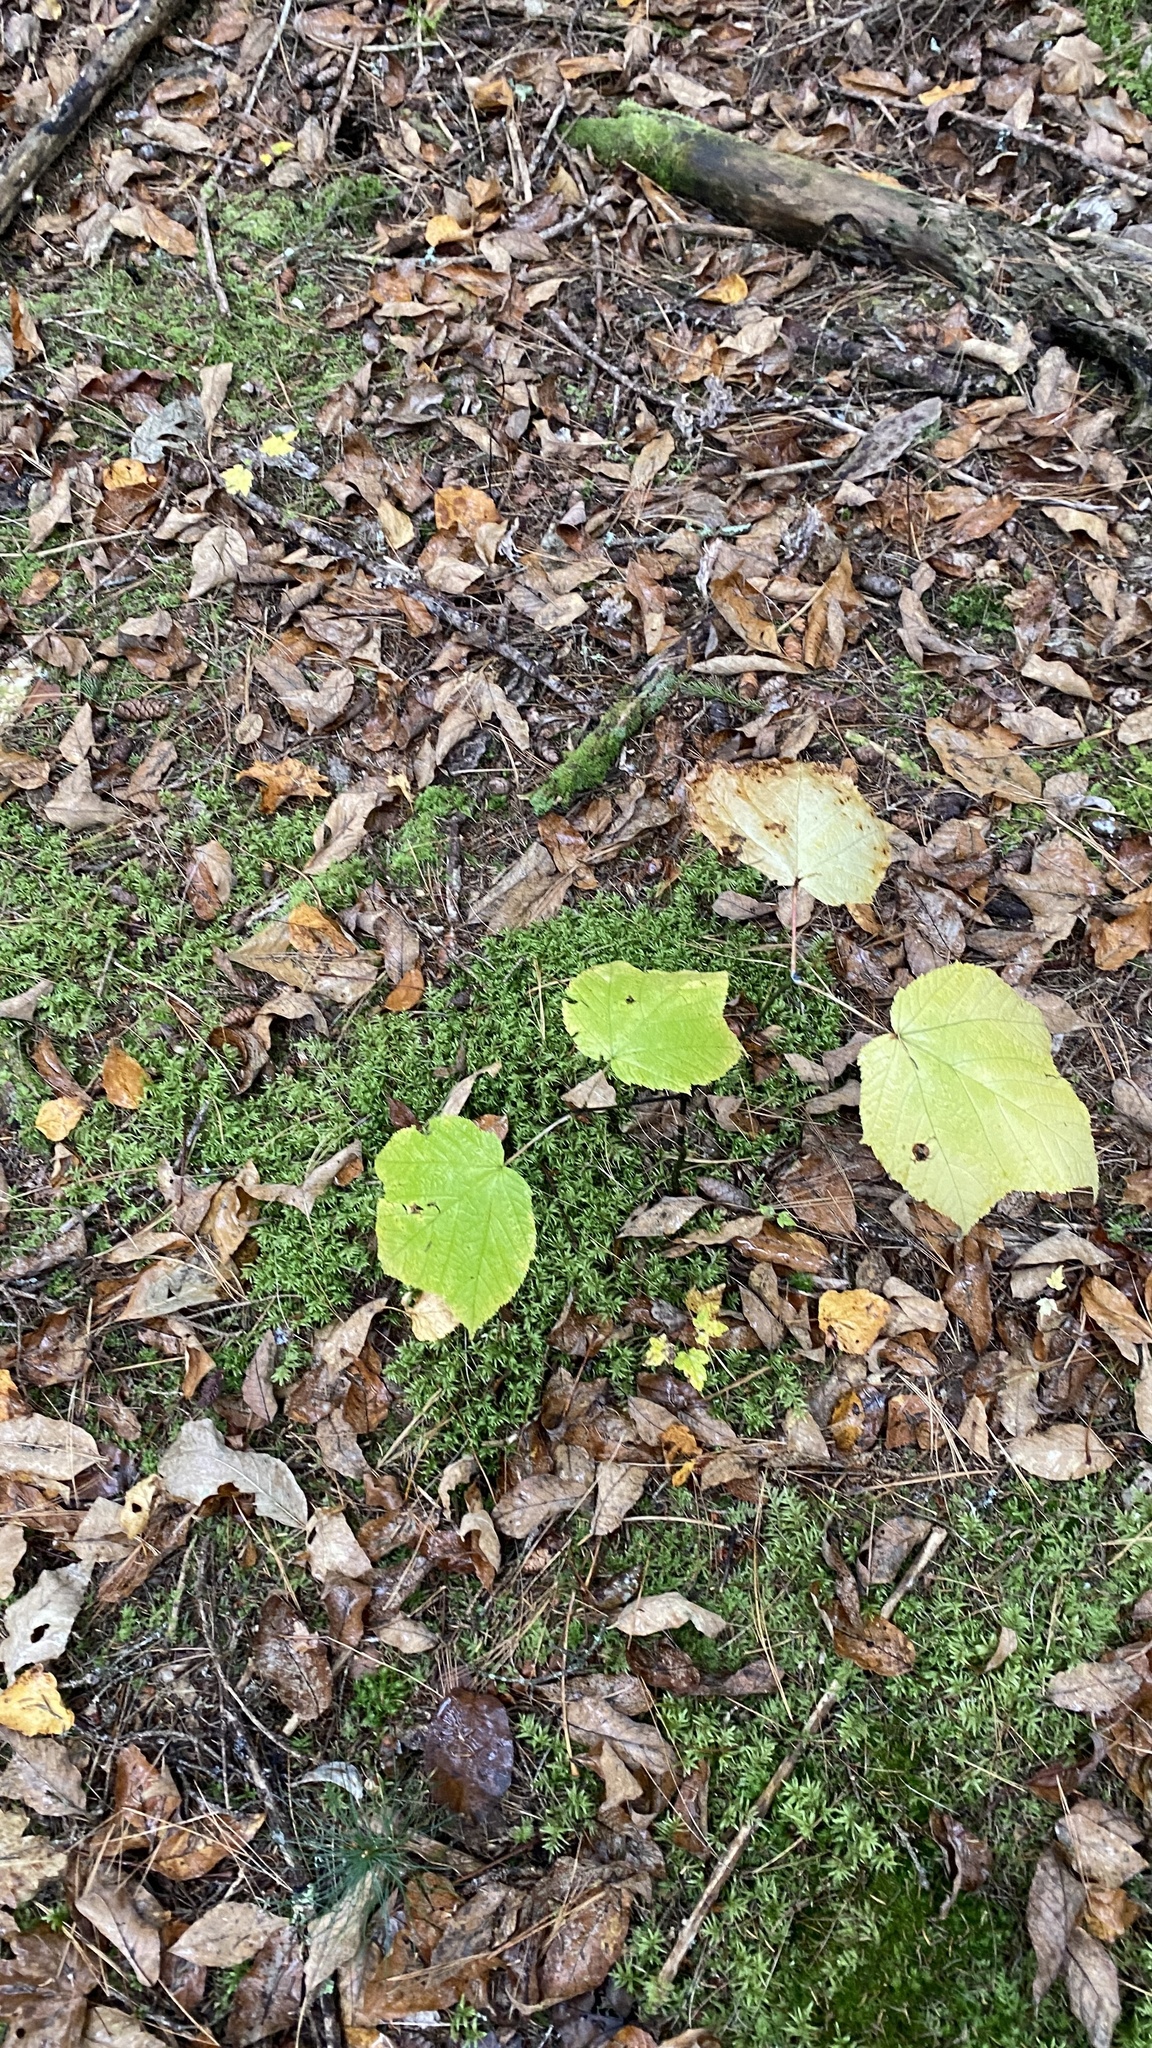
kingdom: Plantae
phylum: Tracheophyta
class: Magnoliopsida
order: Sapindales
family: Sapindaceae
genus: Acer
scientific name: Acer pensylvanicum
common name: Moosewood
